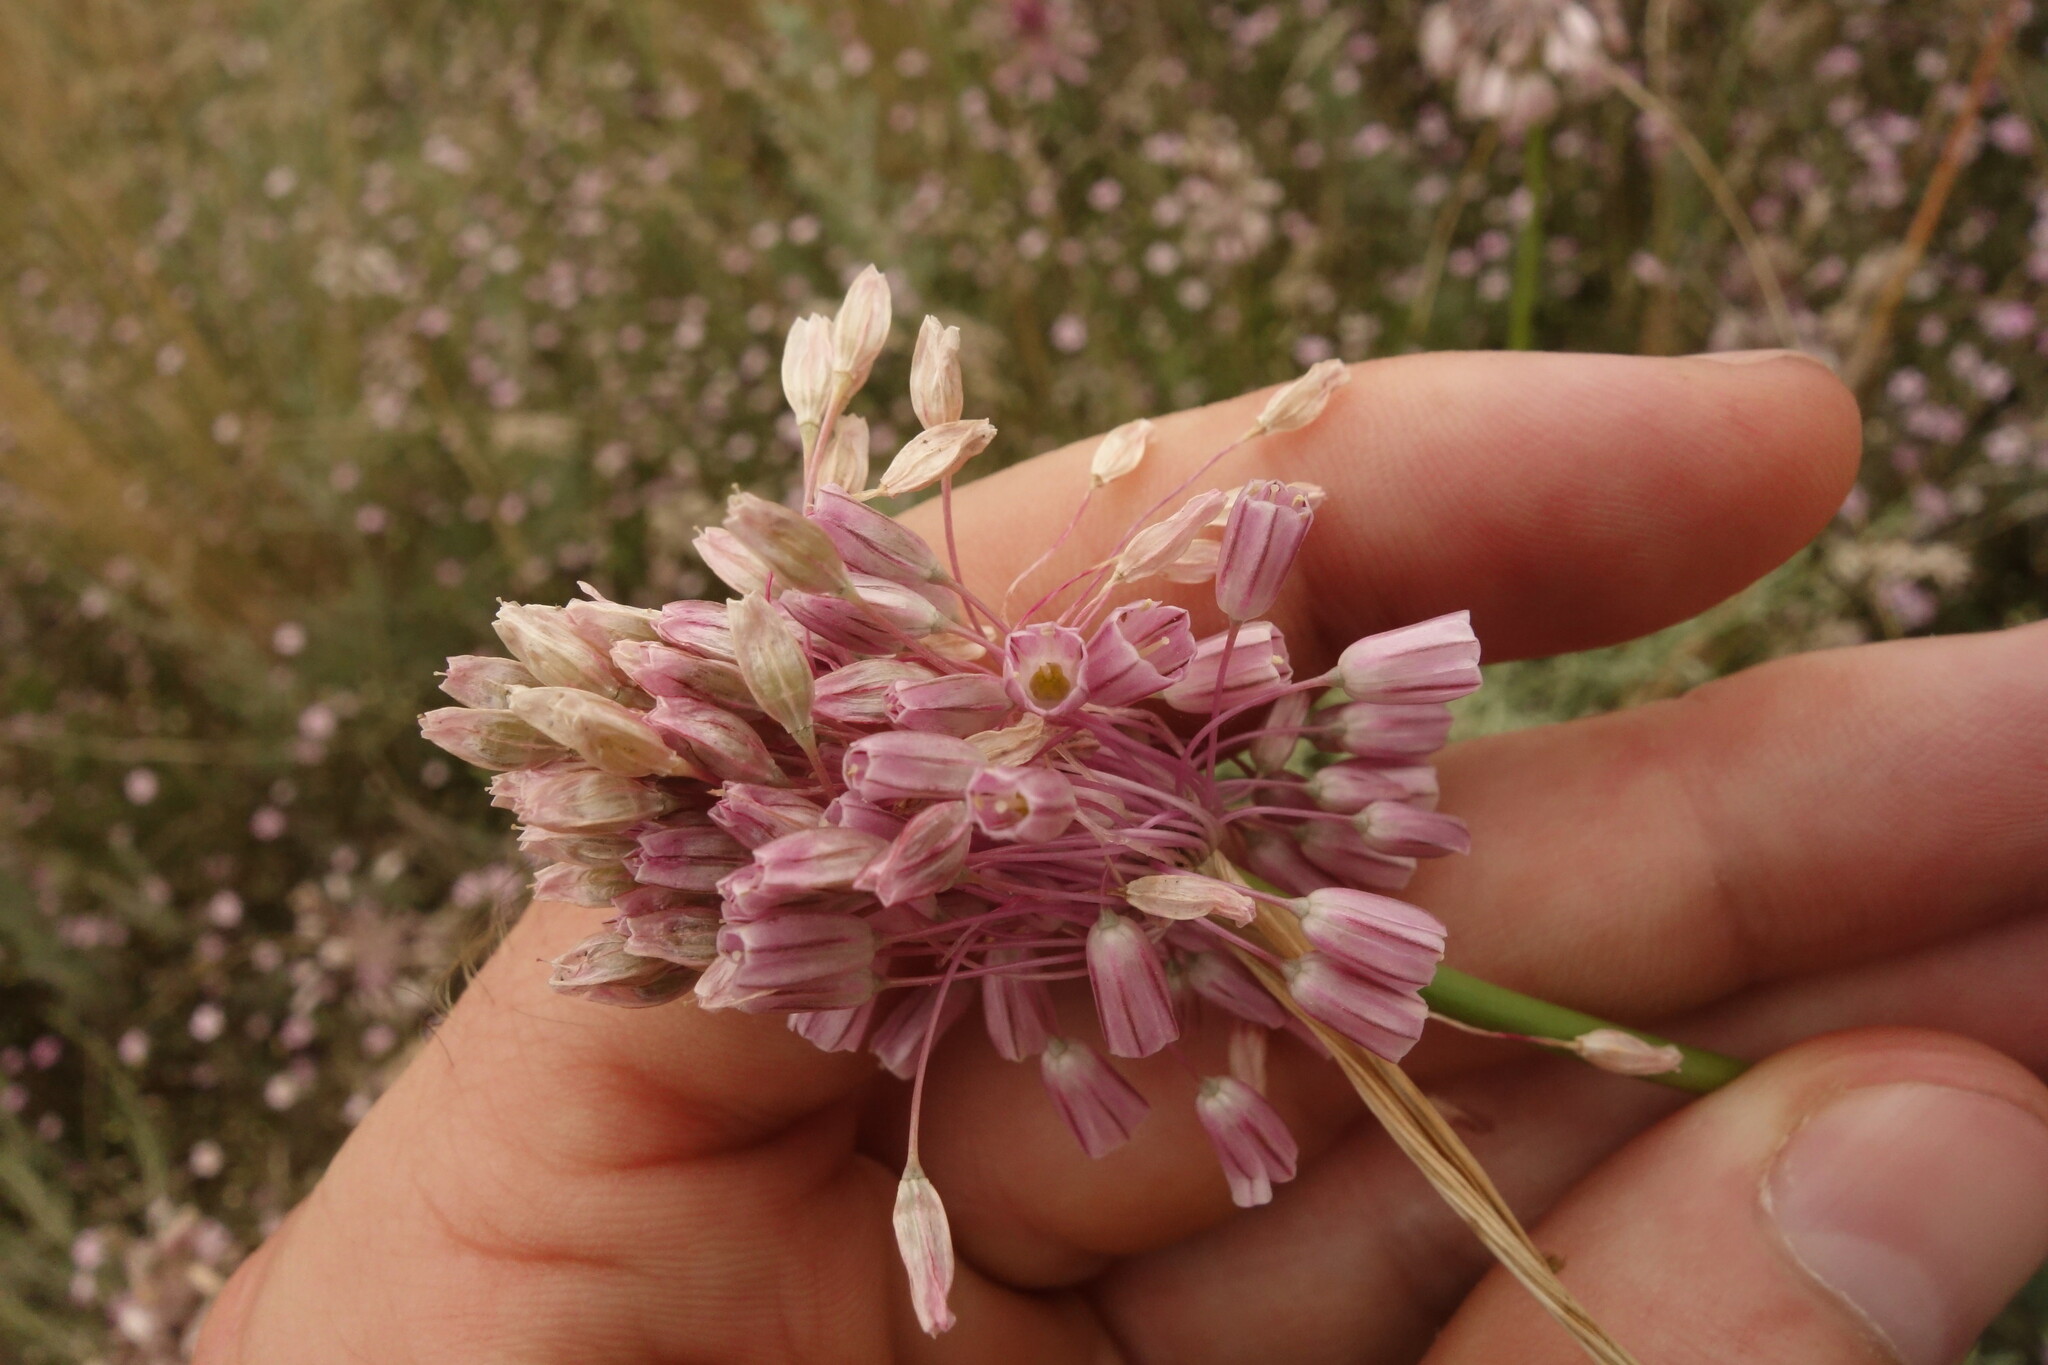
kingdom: Plantae
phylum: Tracheophyta
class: Liliopsida
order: Asparagales
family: Amaryllidaceae
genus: Allium
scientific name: Allium
